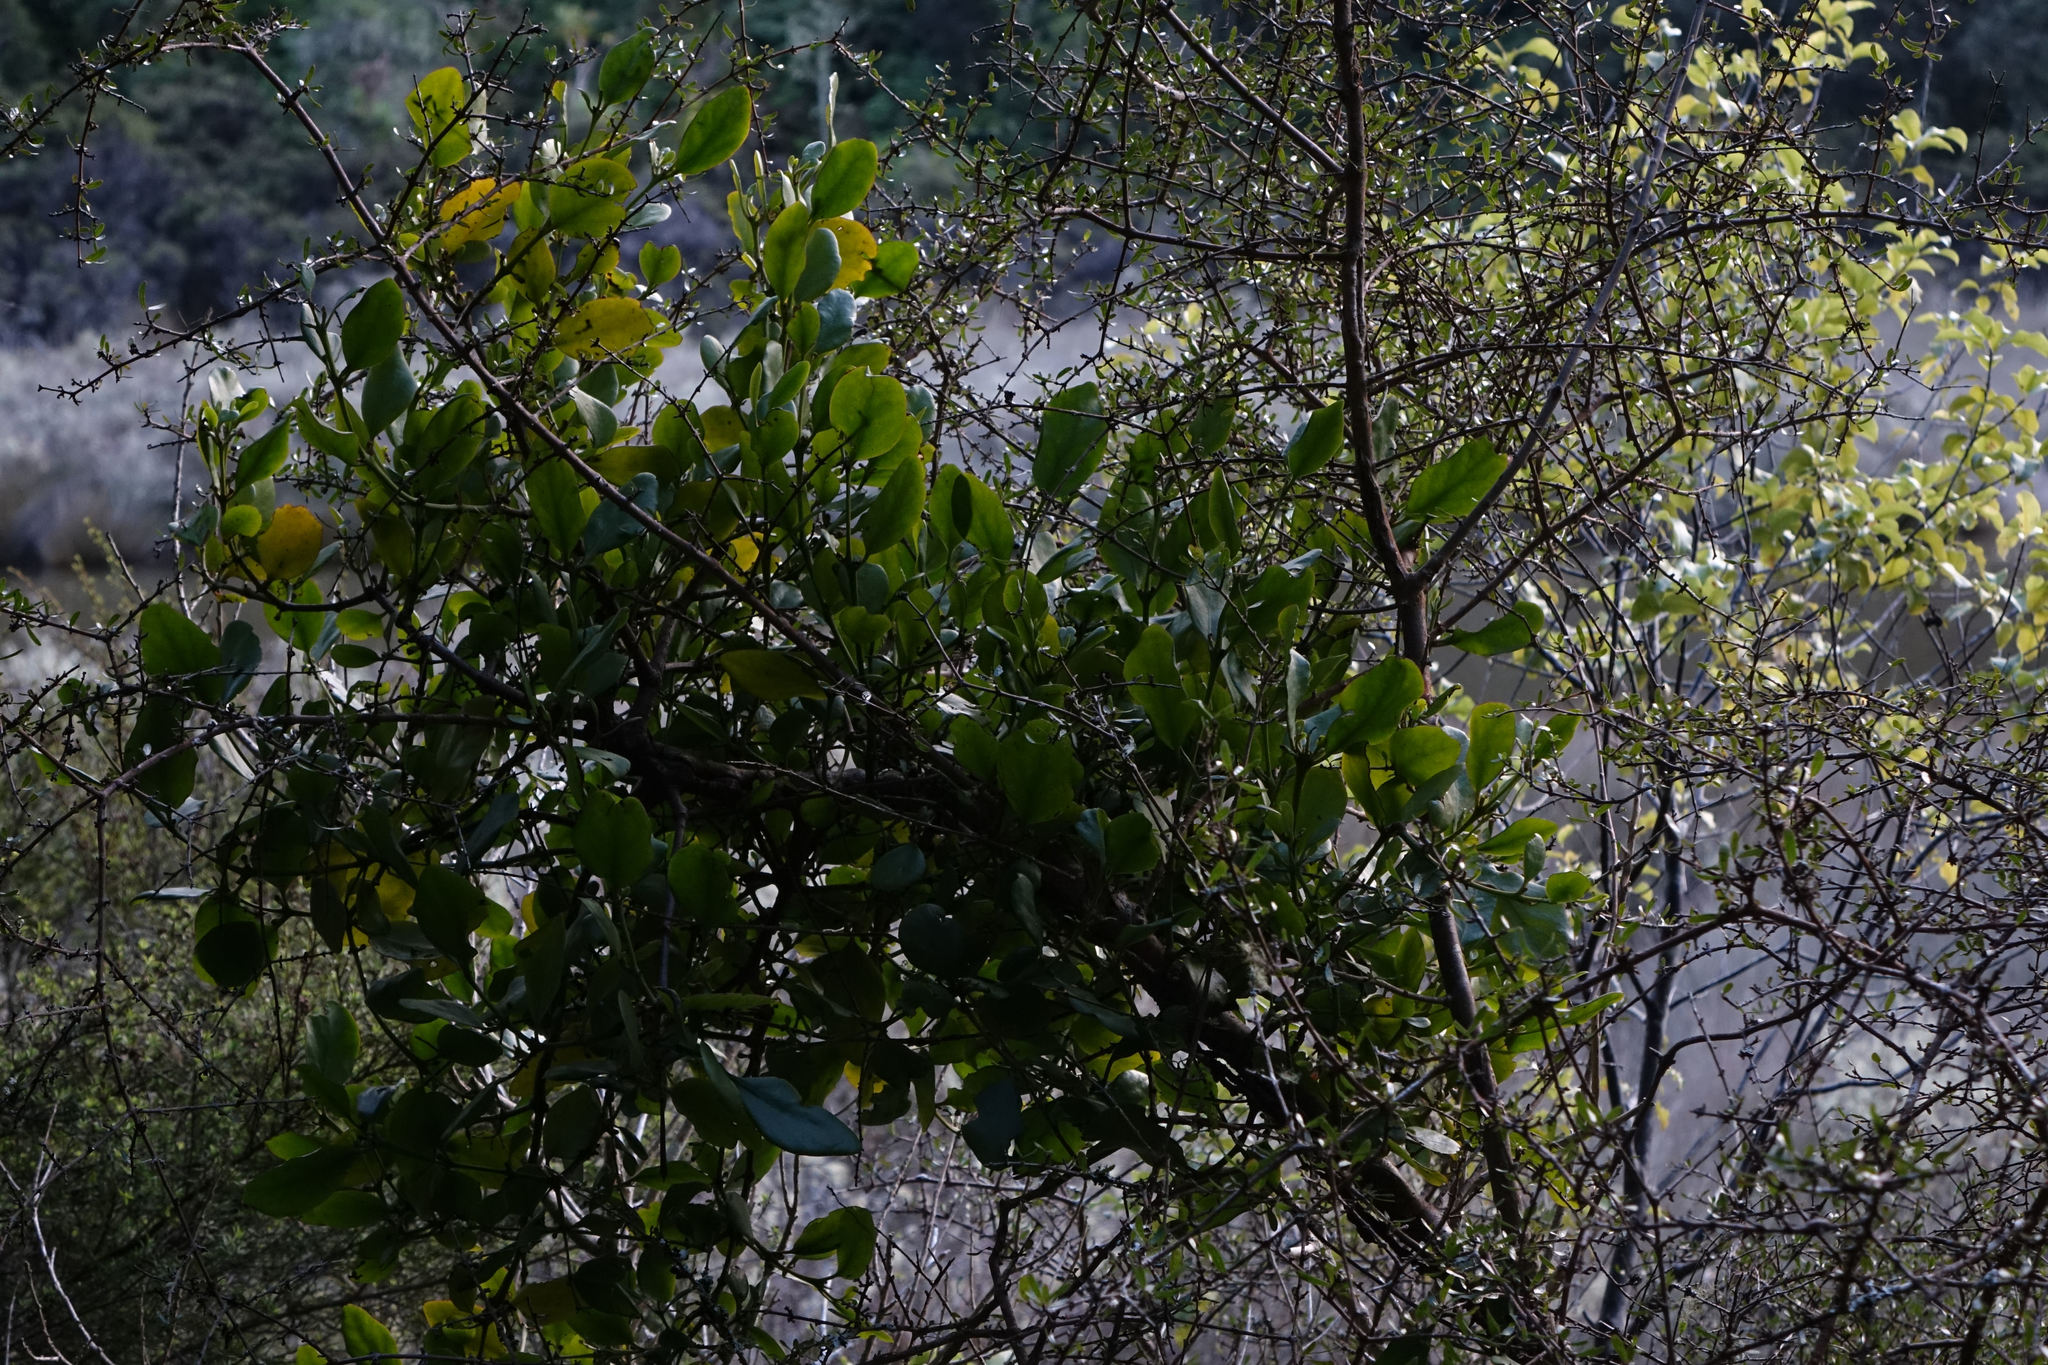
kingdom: Plantae
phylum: Tracheophyta
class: Magnoliopsida
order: Santalales
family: Loranthaceae
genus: Ileostylus
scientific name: Ileostylus micranthus
